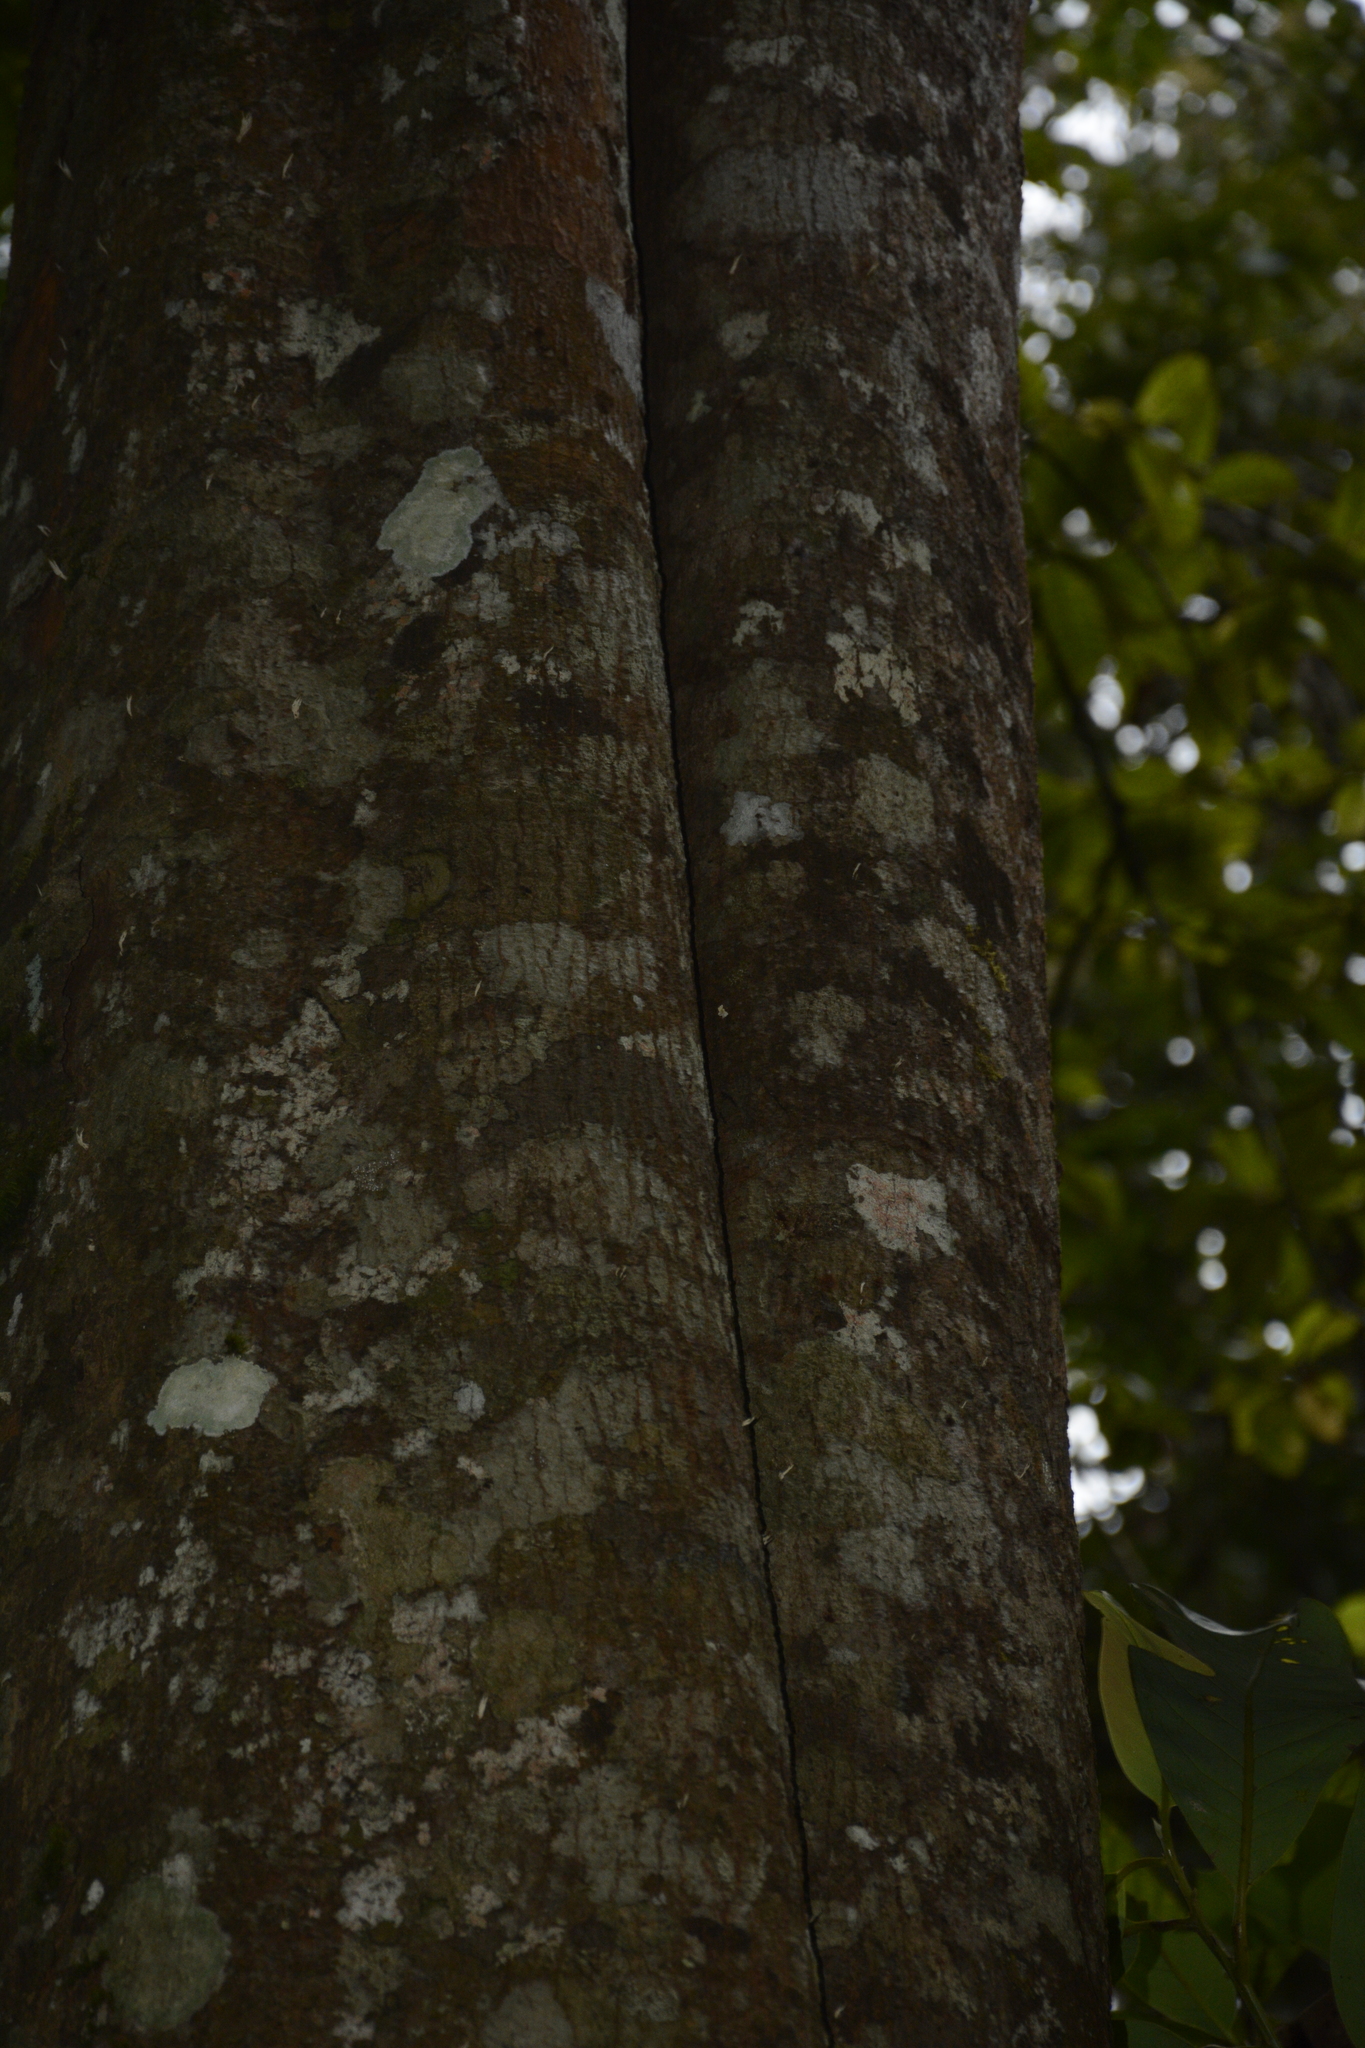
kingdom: Plantae
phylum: Tracheophyta
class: Magnoliopsida
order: Magnoliales
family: Myristicaceae
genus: Myristica
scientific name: Myristica beddomei
